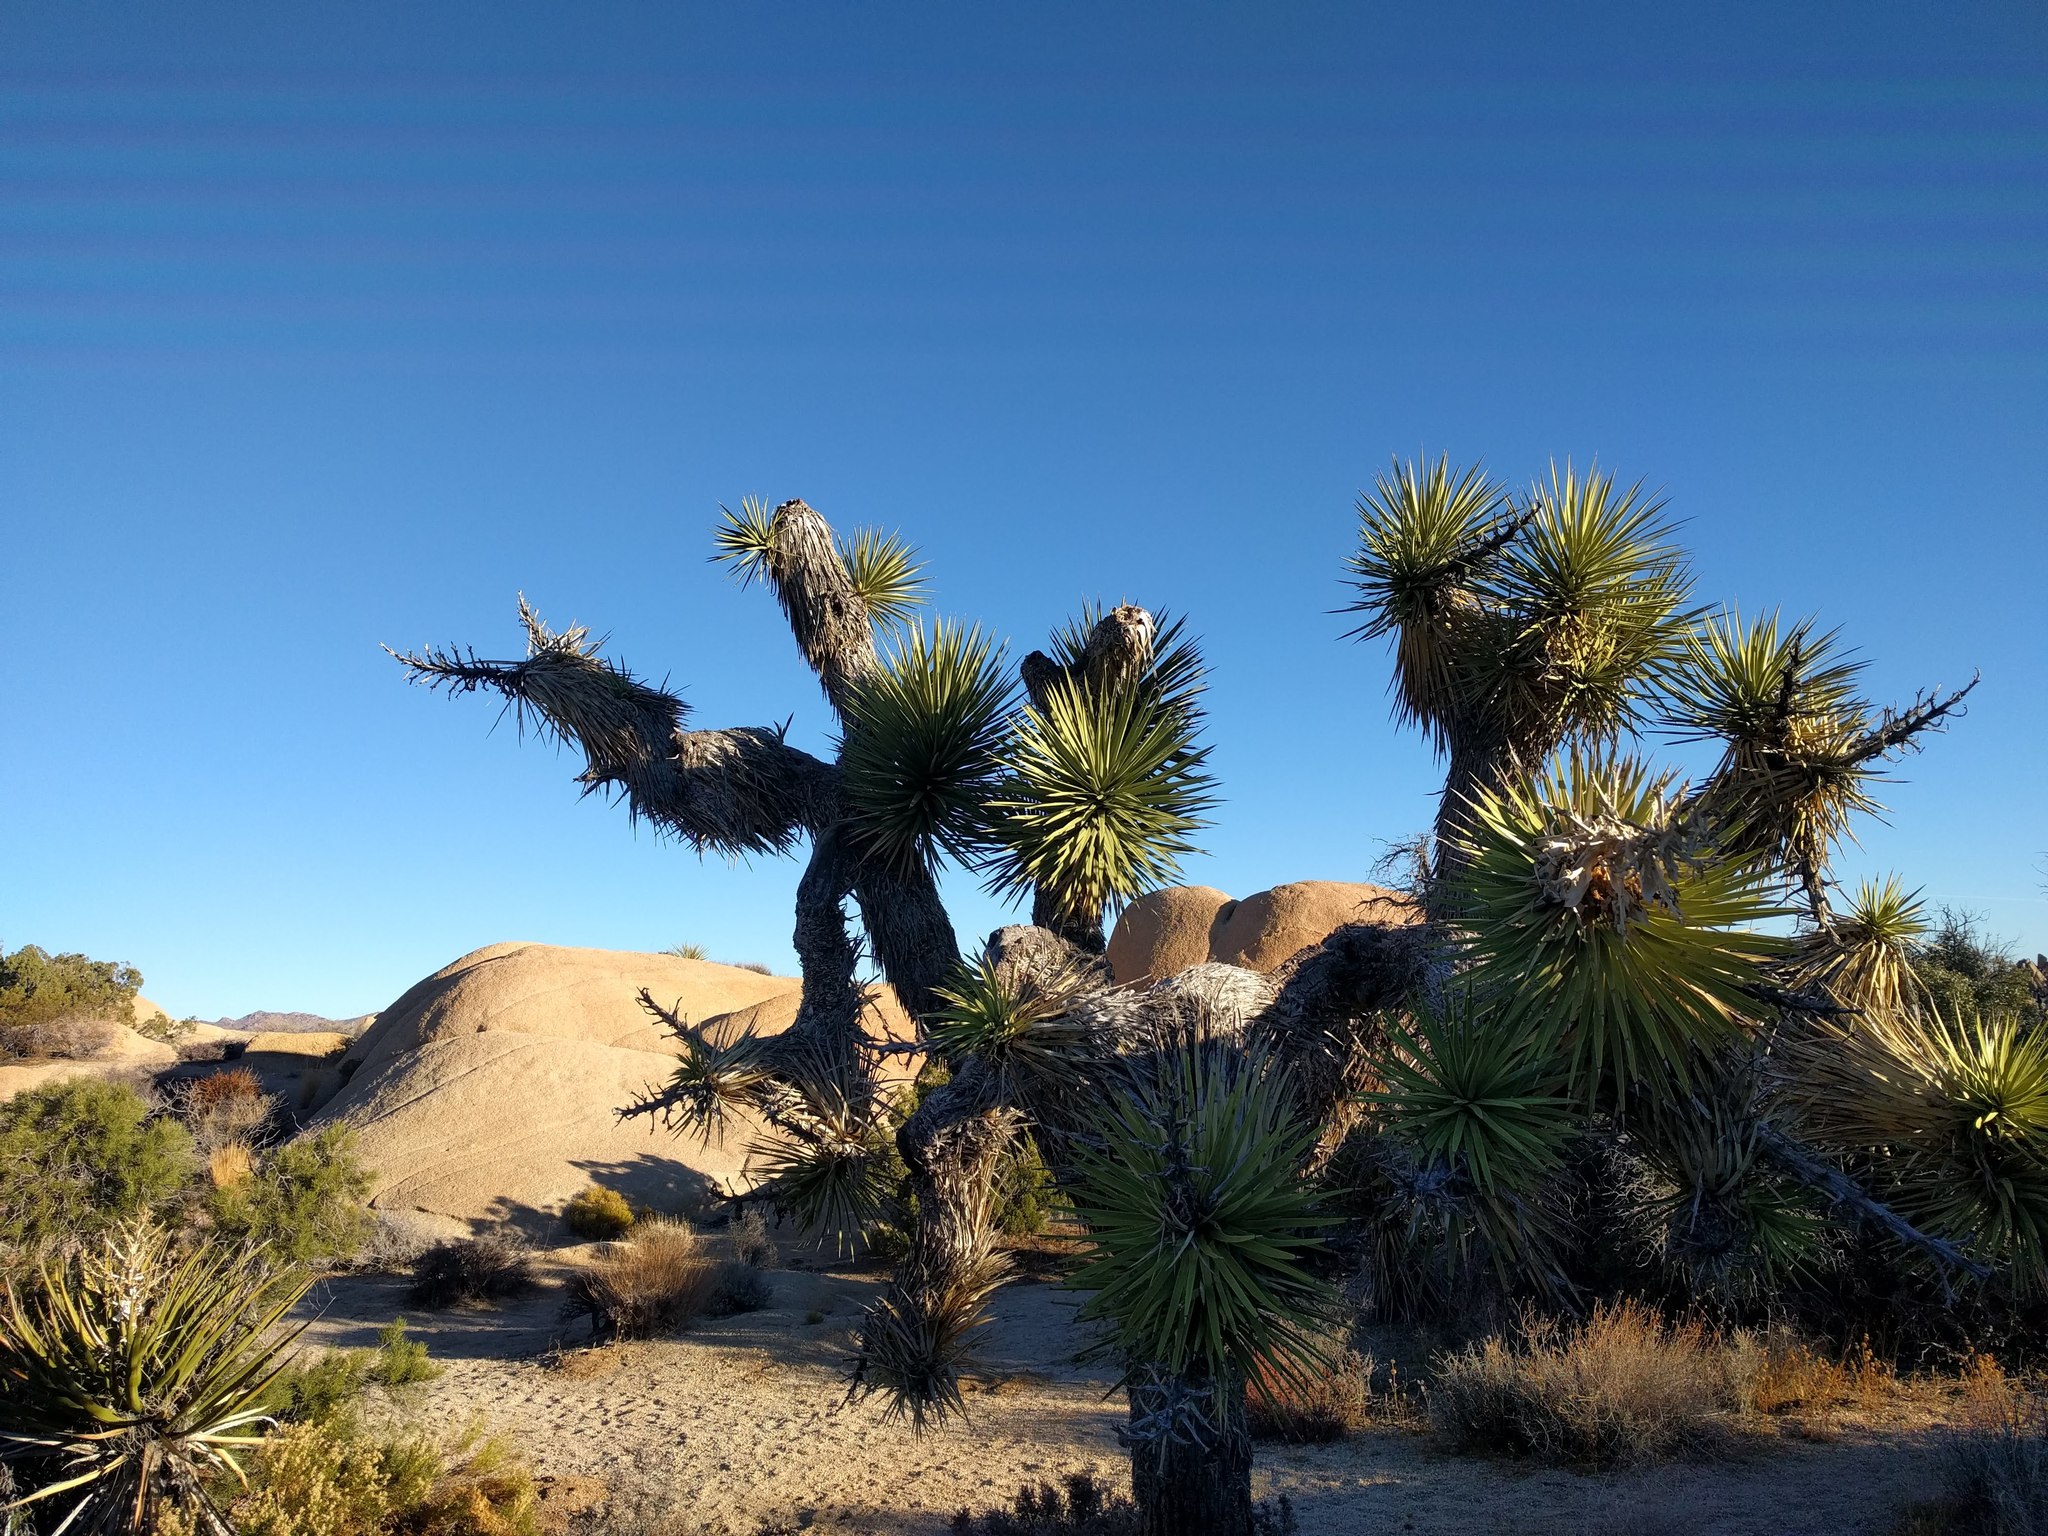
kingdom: Plantae
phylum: Tracheophyta
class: Liliopsida
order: Asparagales
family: Asparagaceae
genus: Yucca
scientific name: Yucca brevifolia
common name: Joshua tree
